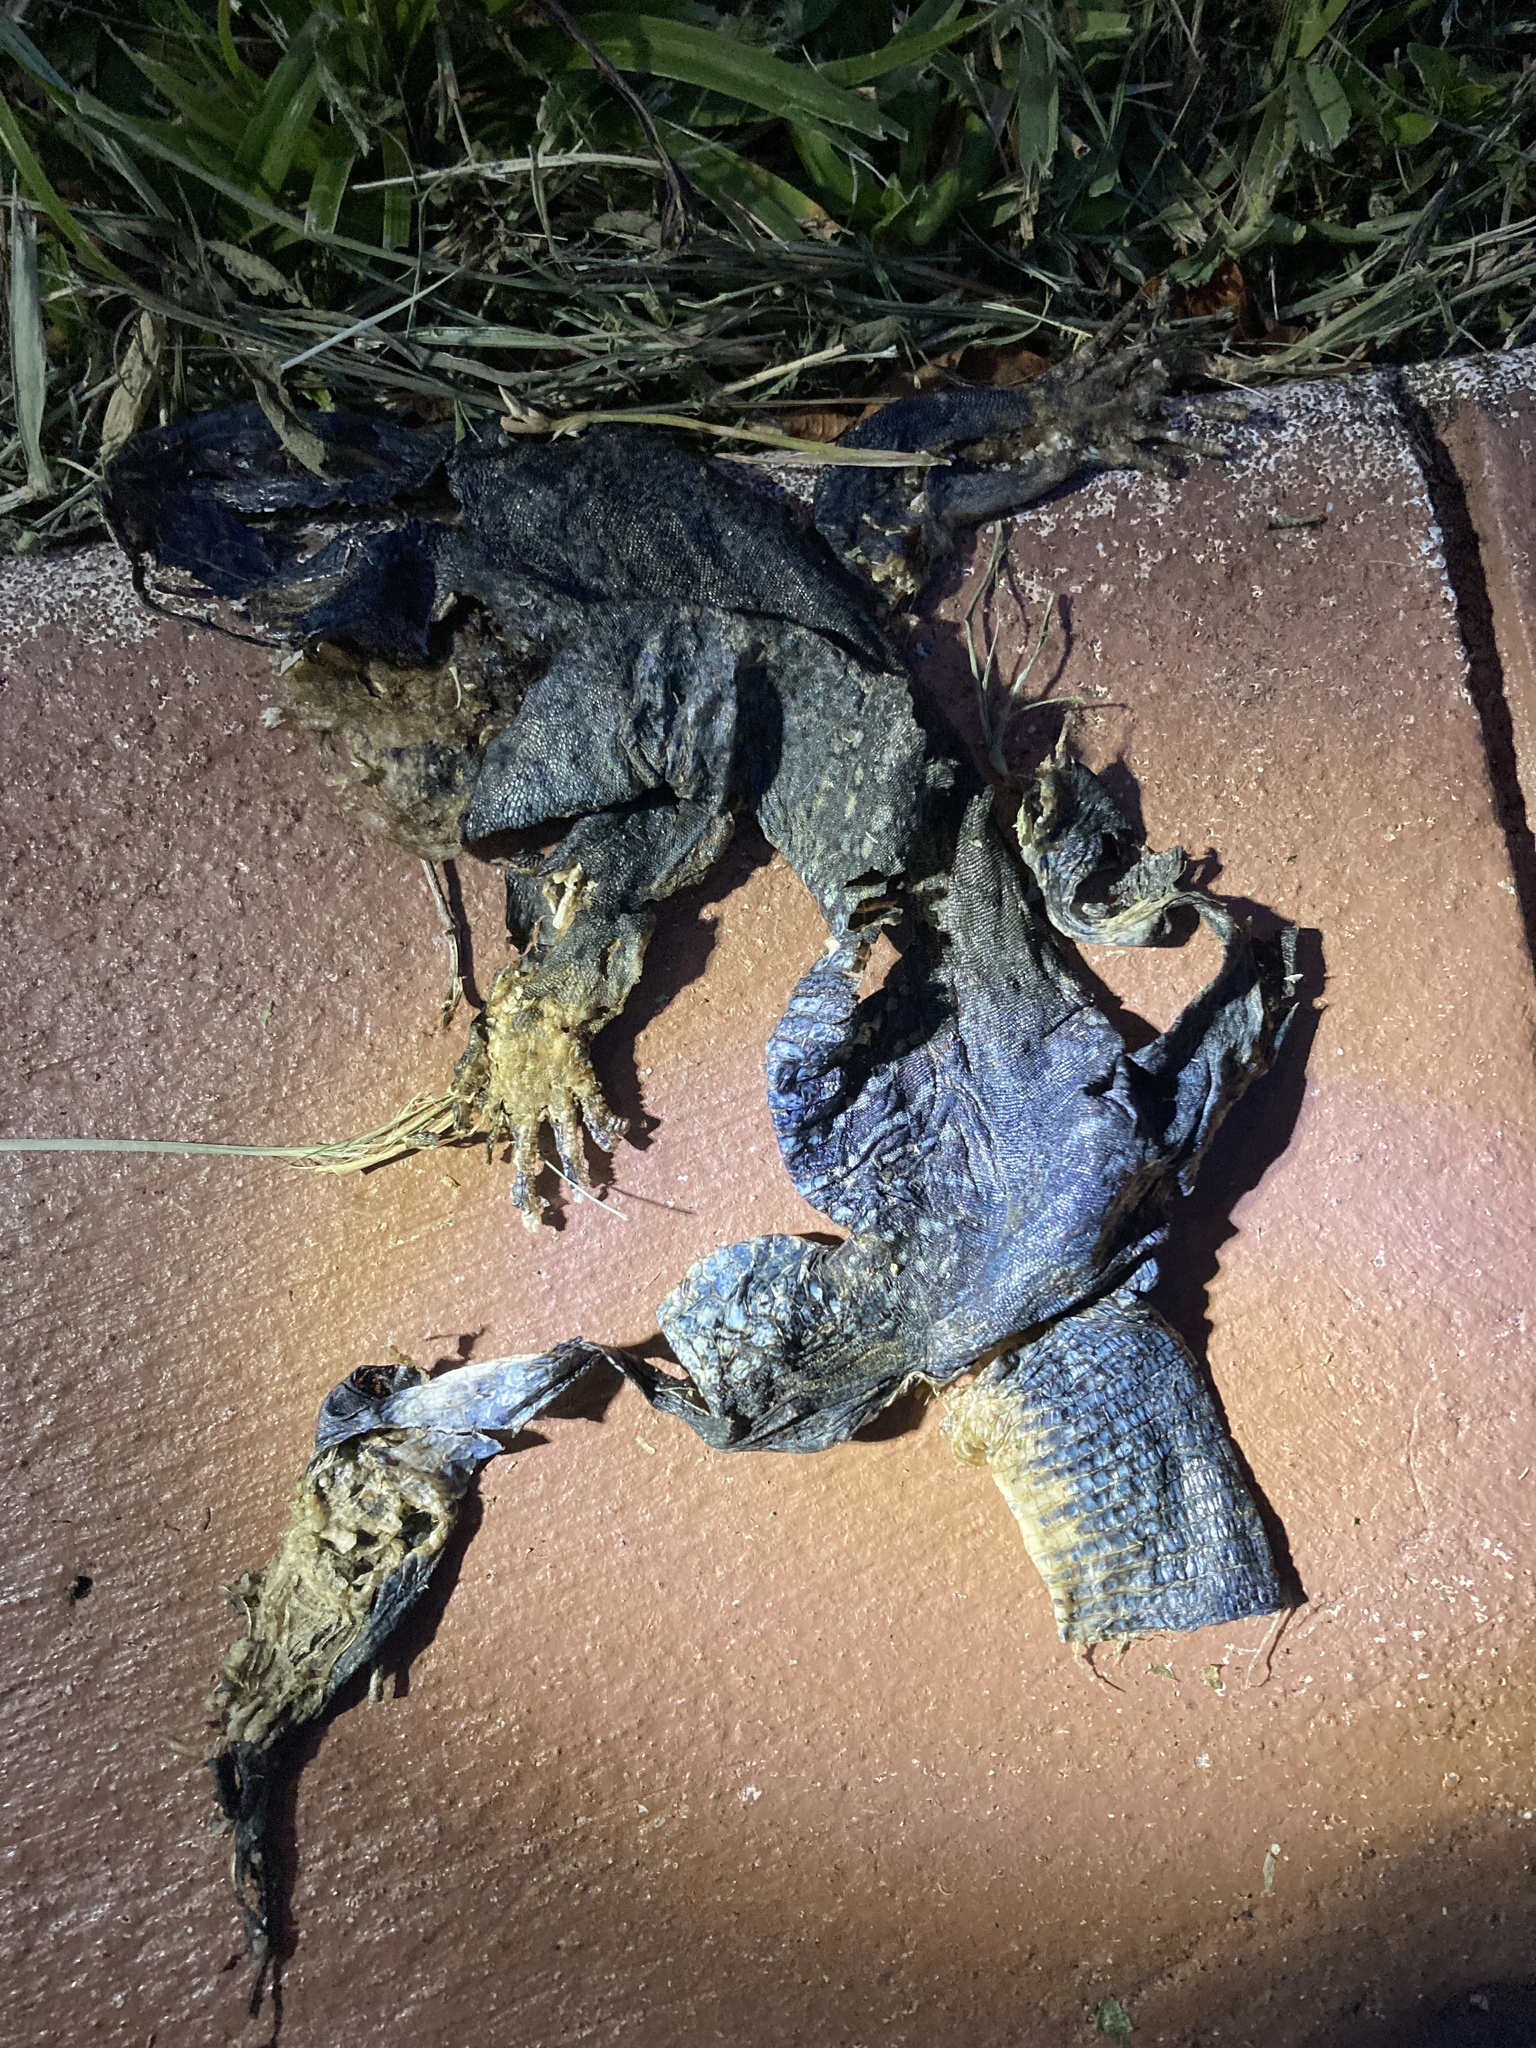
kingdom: Animalia
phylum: Chordata
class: Squamata
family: Teiidae
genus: Ameiva
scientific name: Ameiva ameiva
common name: Giant ameiva
